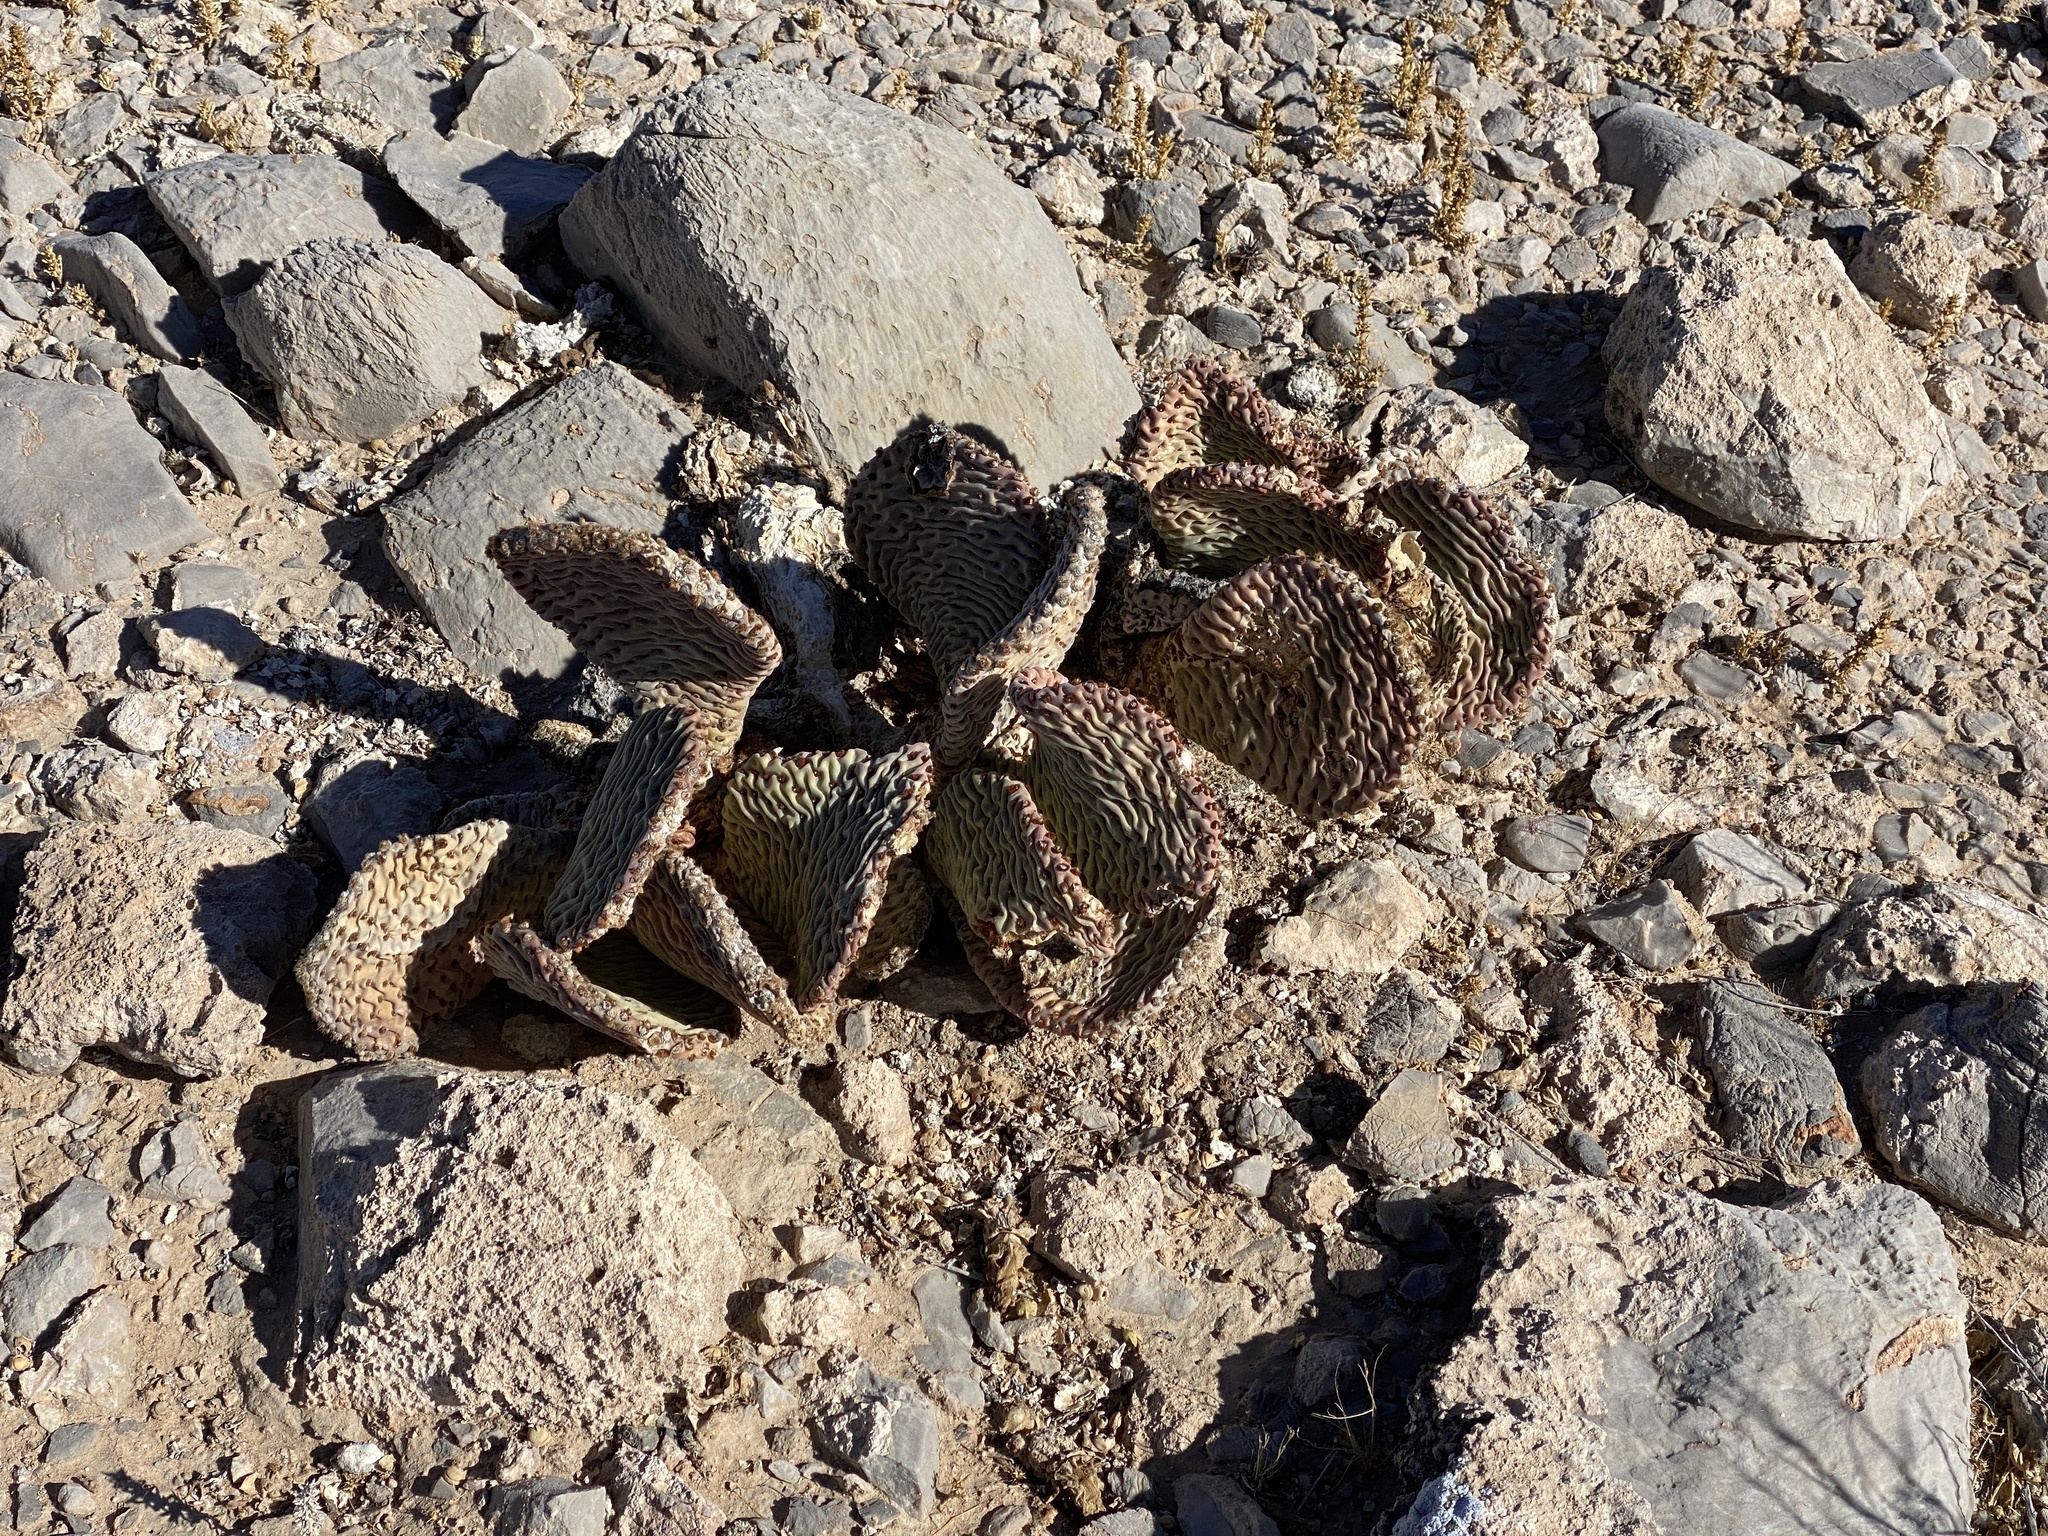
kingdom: Plantae
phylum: Tracheophyta
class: Magnoliopsida
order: Caryophyllales
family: Cactaceae
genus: Opuntia
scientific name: Opuntia basilaris
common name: Beavertail prickly-pear
